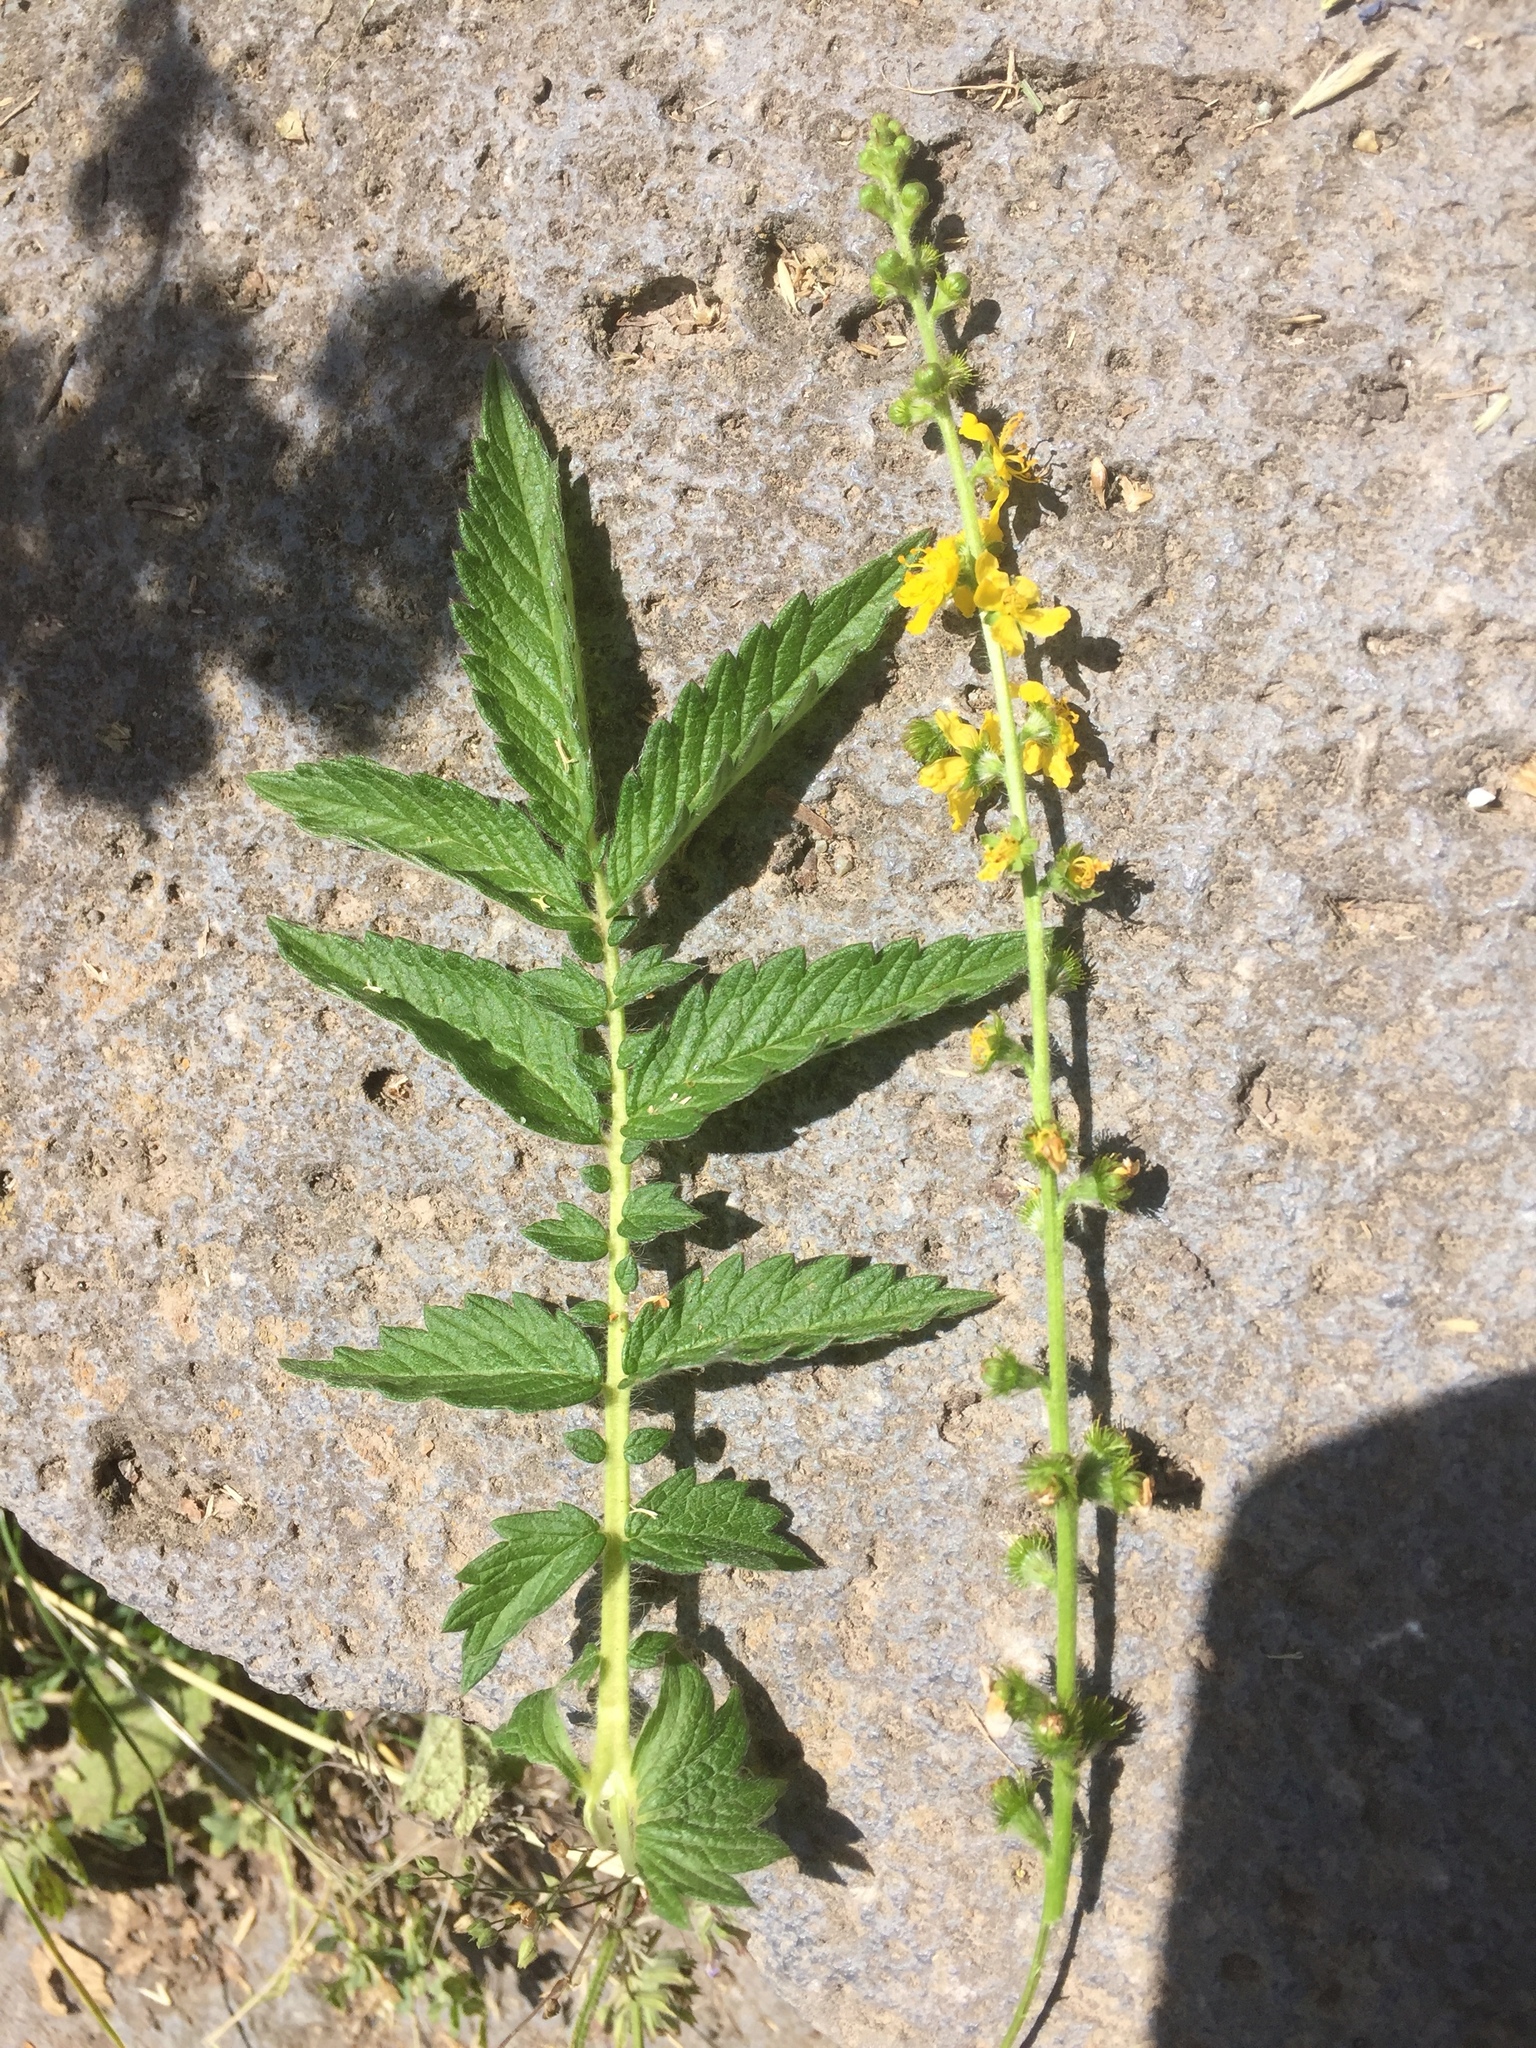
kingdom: Plantae
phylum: Tracheophyta
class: Magnoliopsida
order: Rosales
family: Rosaceae
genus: Agrimonia
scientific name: Agrimonia eupatoria
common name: Agrimony
